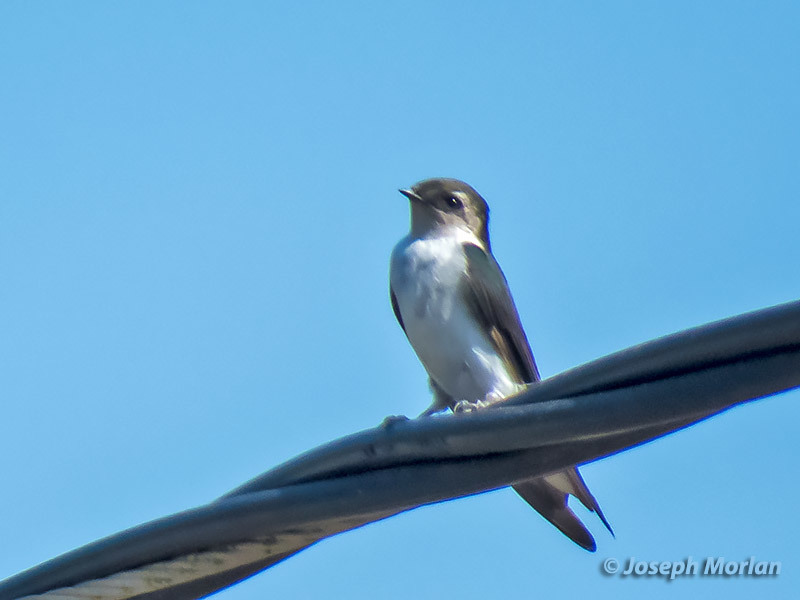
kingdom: Animalia
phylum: Chordata
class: Aves
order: Passeriformes
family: Hirundinidae
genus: Tachycineta
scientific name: Tachycineta thalassina
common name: Violet-green swallow
